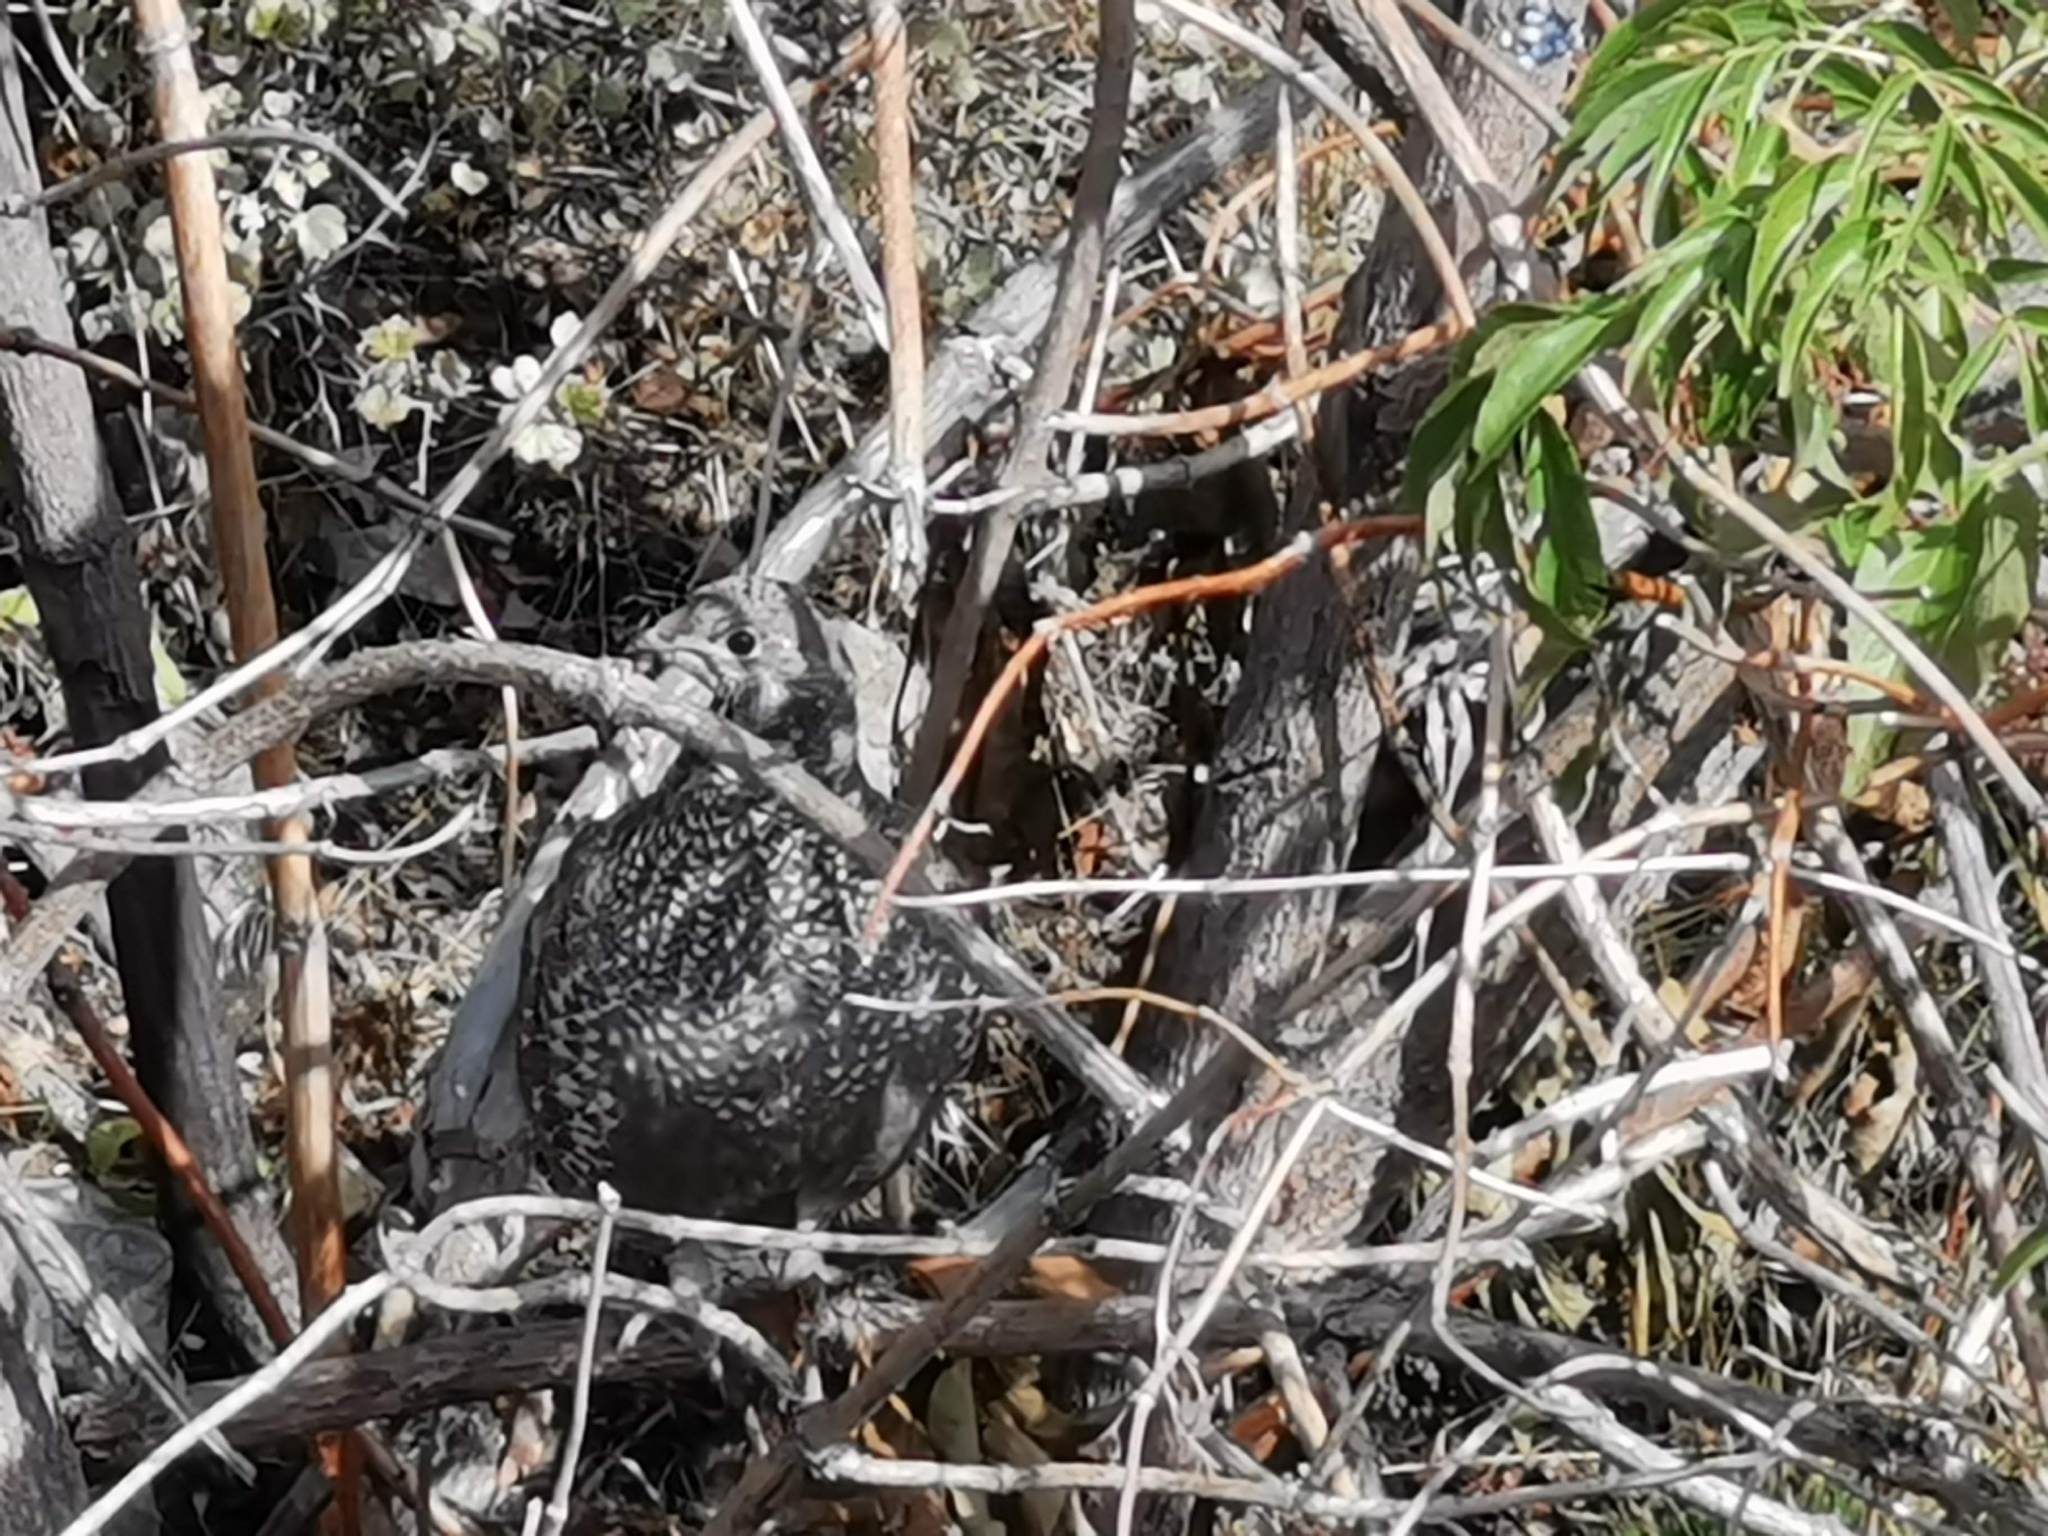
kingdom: Animalia
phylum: Chordata
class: Aves
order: Galliformes
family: Phasianidae
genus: Dendragapus
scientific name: Dendragapus obscurus
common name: Dusky grouse
